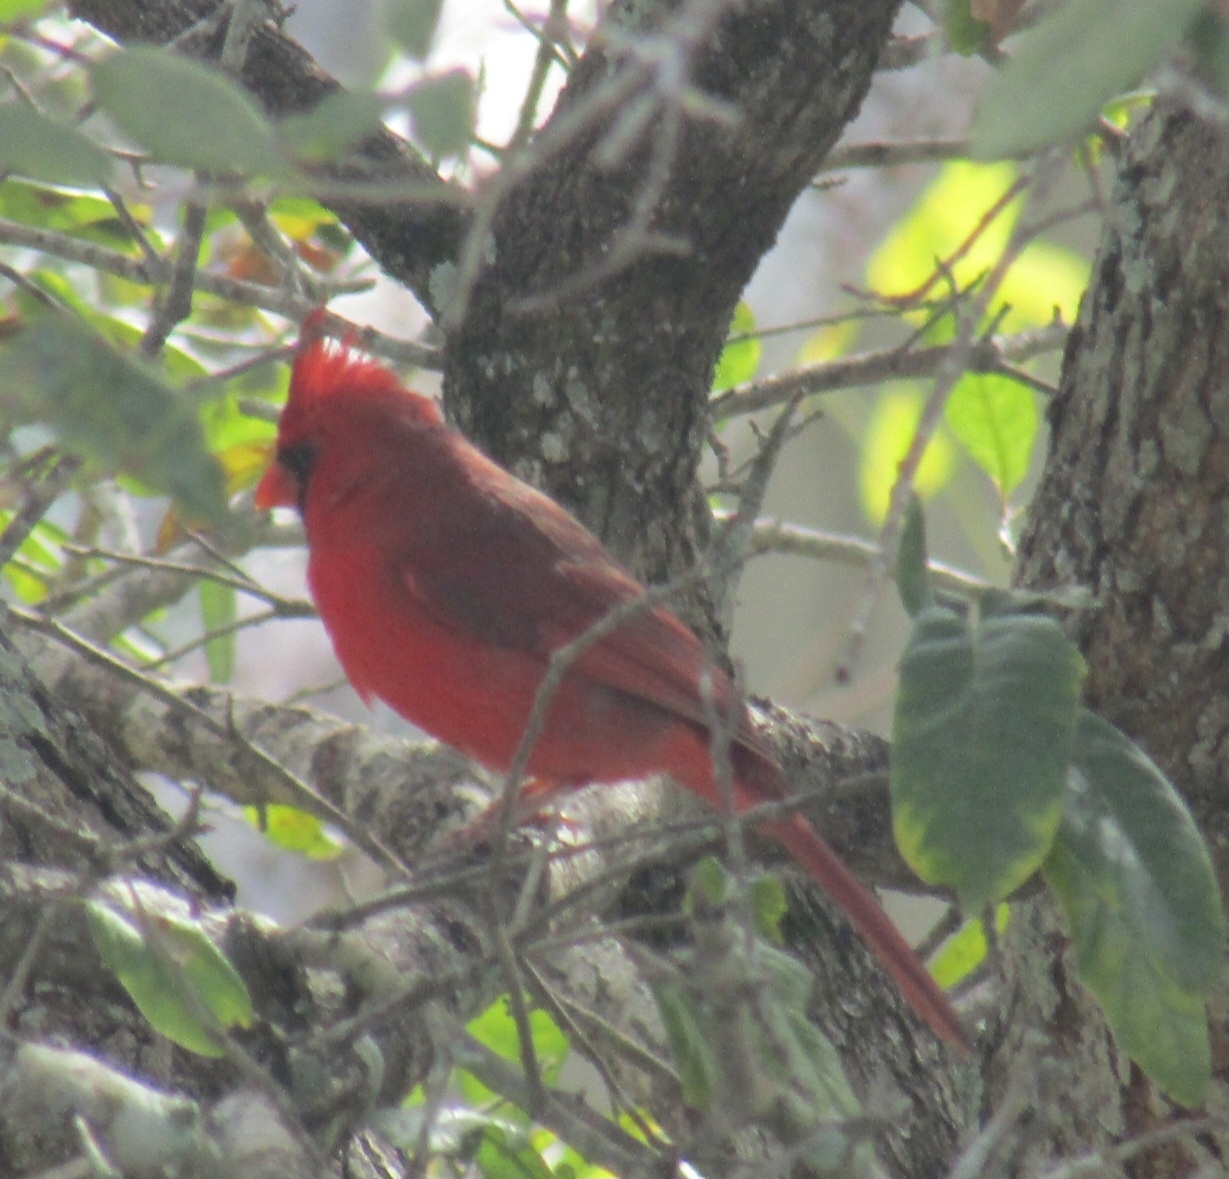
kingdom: Animalia
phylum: Chordata
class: Aves
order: Passeriformes
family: Cardinalidae
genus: Cardinalis
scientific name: Cardinalis cardinalis
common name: Northern cardinal
